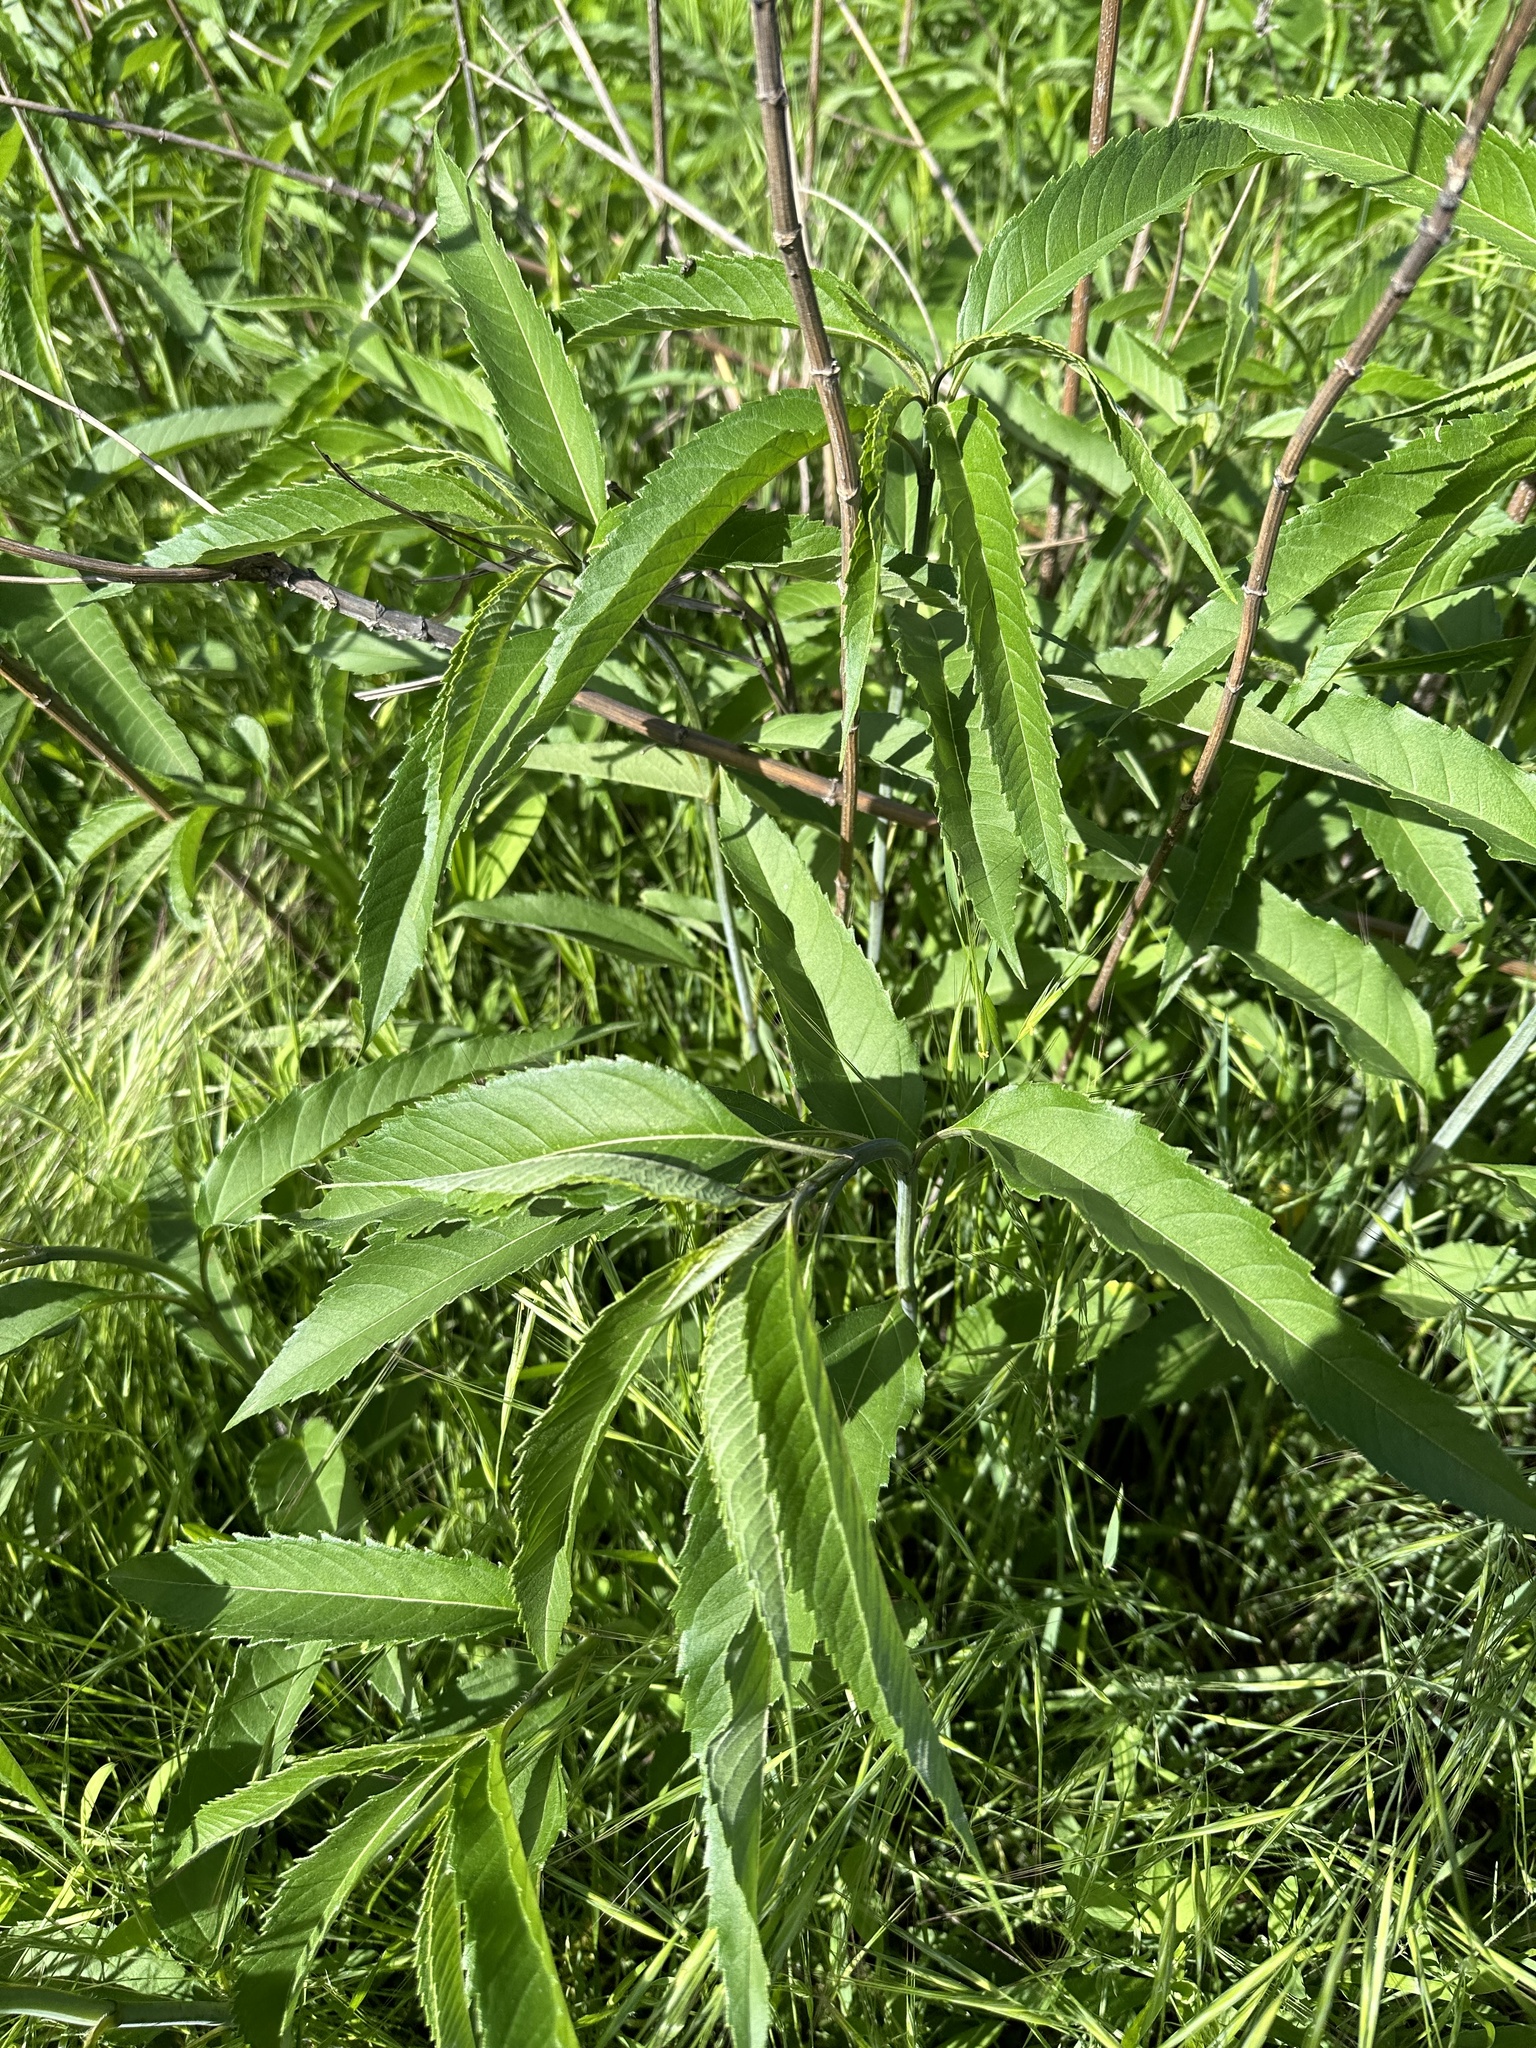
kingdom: Plantae
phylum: Tracheophyta
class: Magnoliopsida
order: Asterales
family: Asteraceae
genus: Helianthus
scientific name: Helianthus grosseserratus
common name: Sawtooth sunflower
